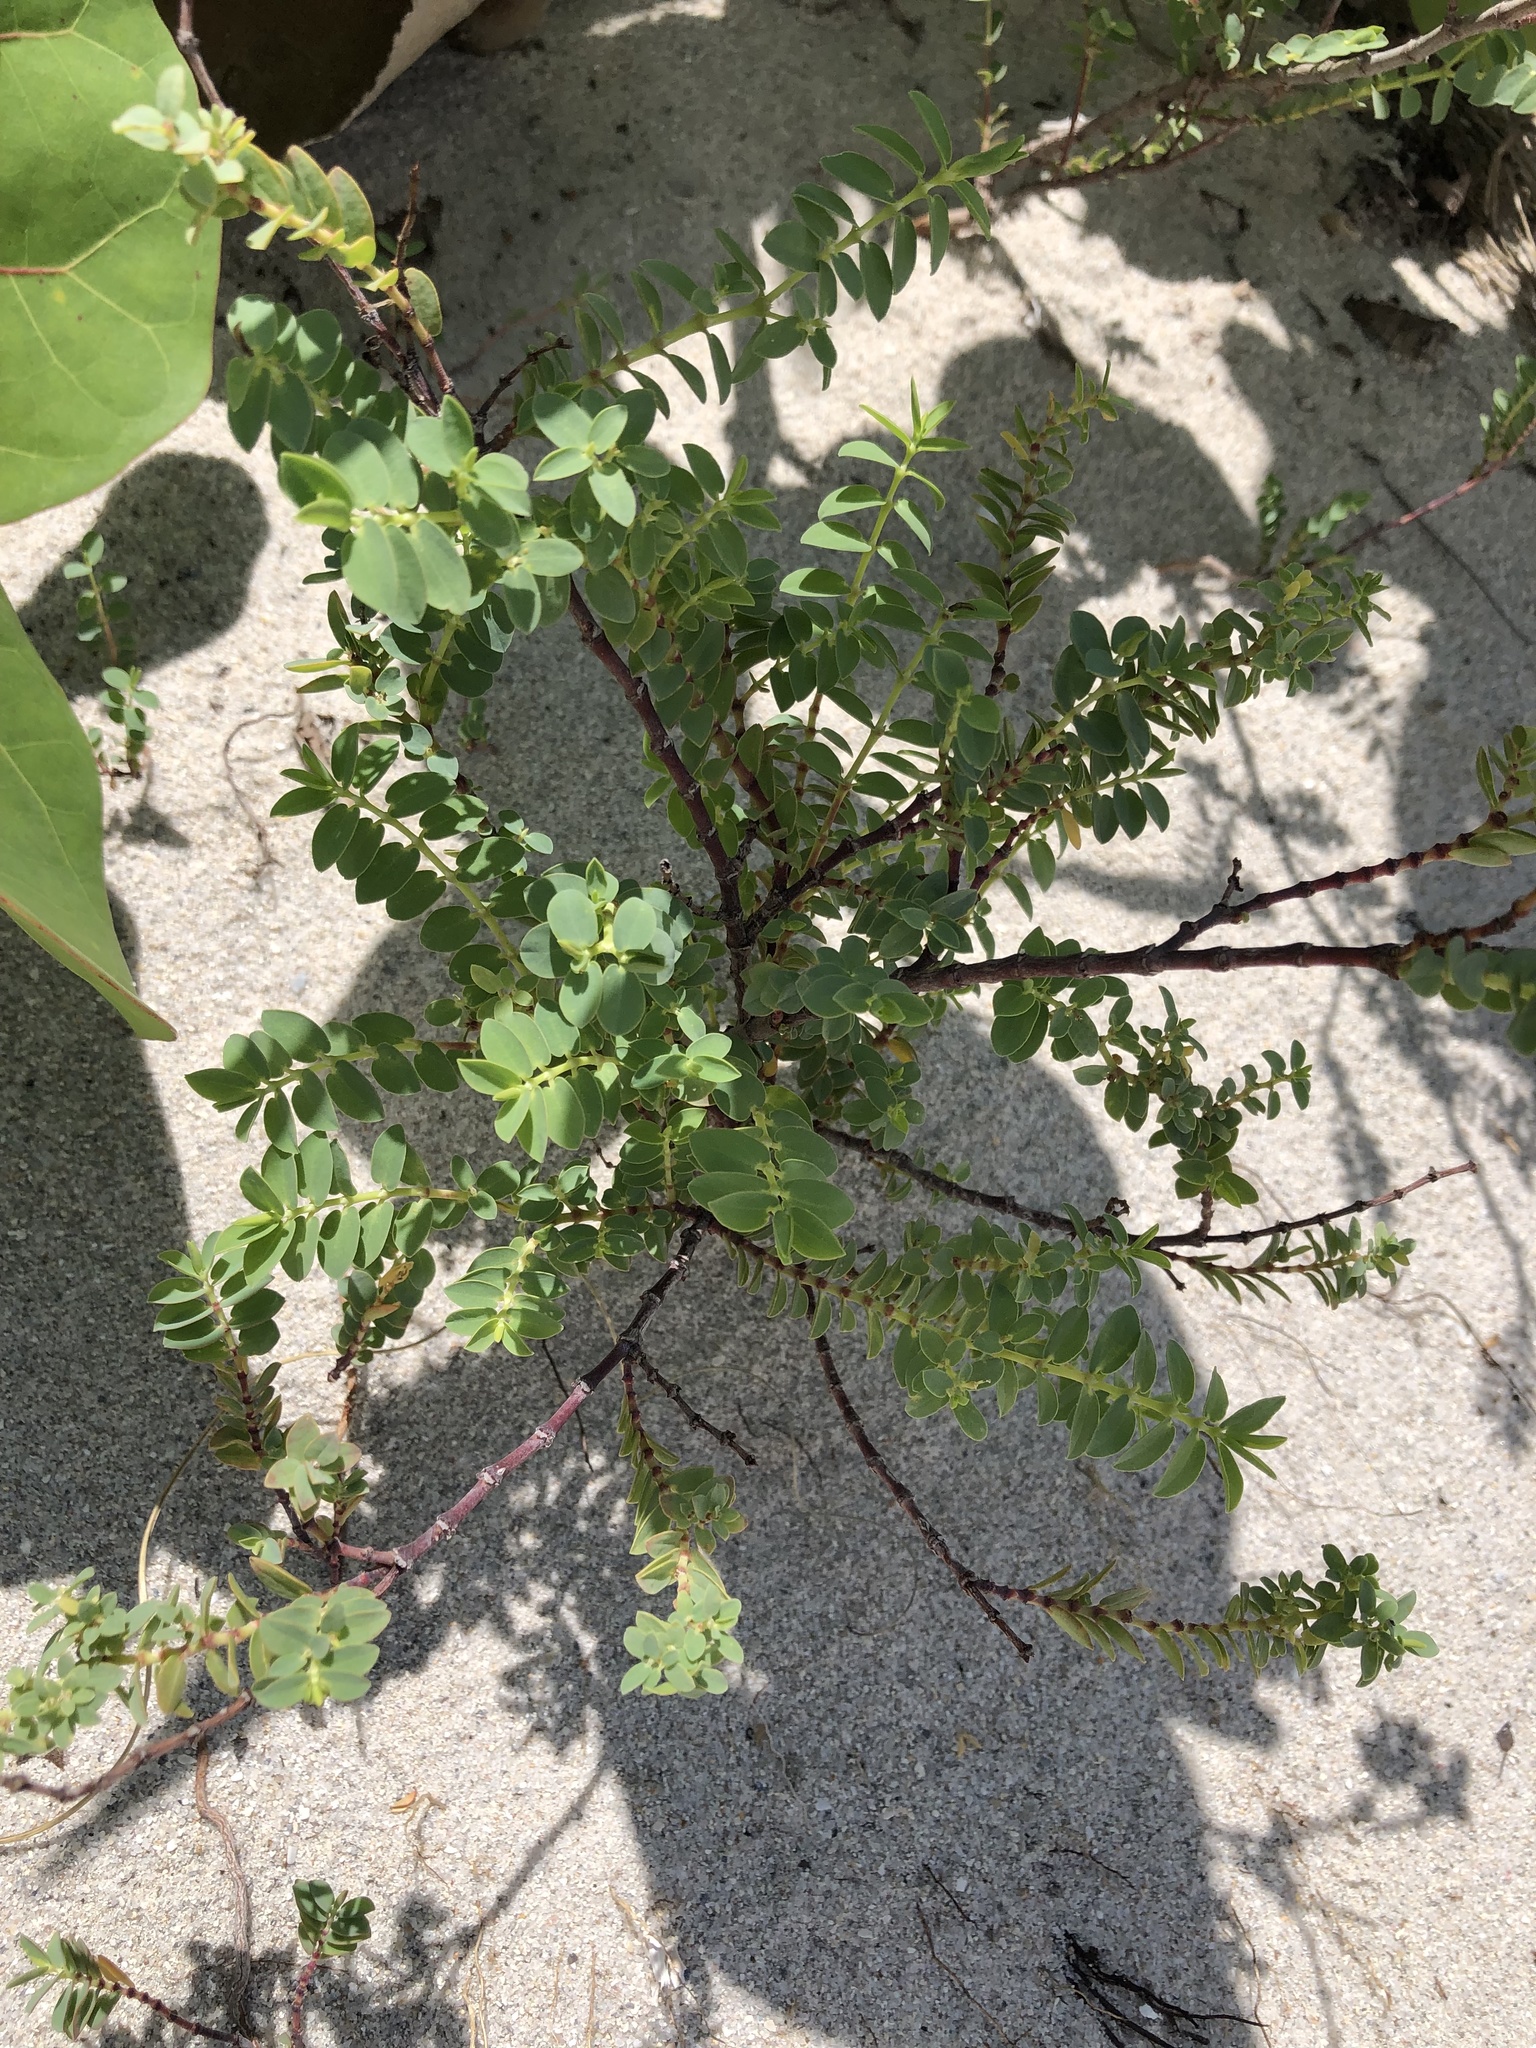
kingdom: Plantae
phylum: Tracheophyta
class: Magnoliopsida
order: Malpighiales
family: Euphorbiaceae
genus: Euphorbia
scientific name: Euphorbia mesembryanthemifolia
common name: Coastal beach sandmat
